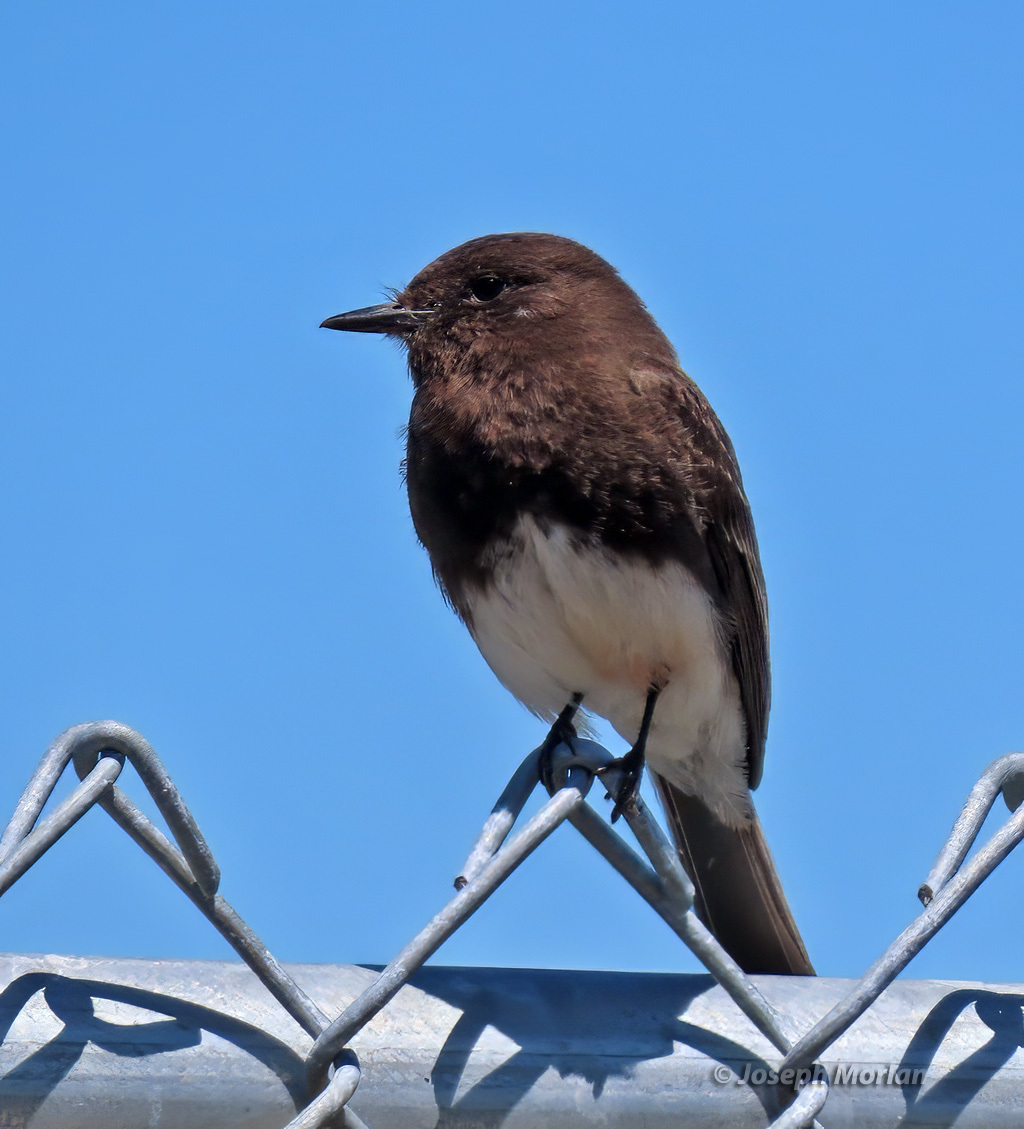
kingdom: Animalia
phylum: Chordata
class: Aves
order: Passeriformes
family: Tyrannidae
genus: Sayornis
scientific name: Sayornis nigricans
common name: Black phoebe
